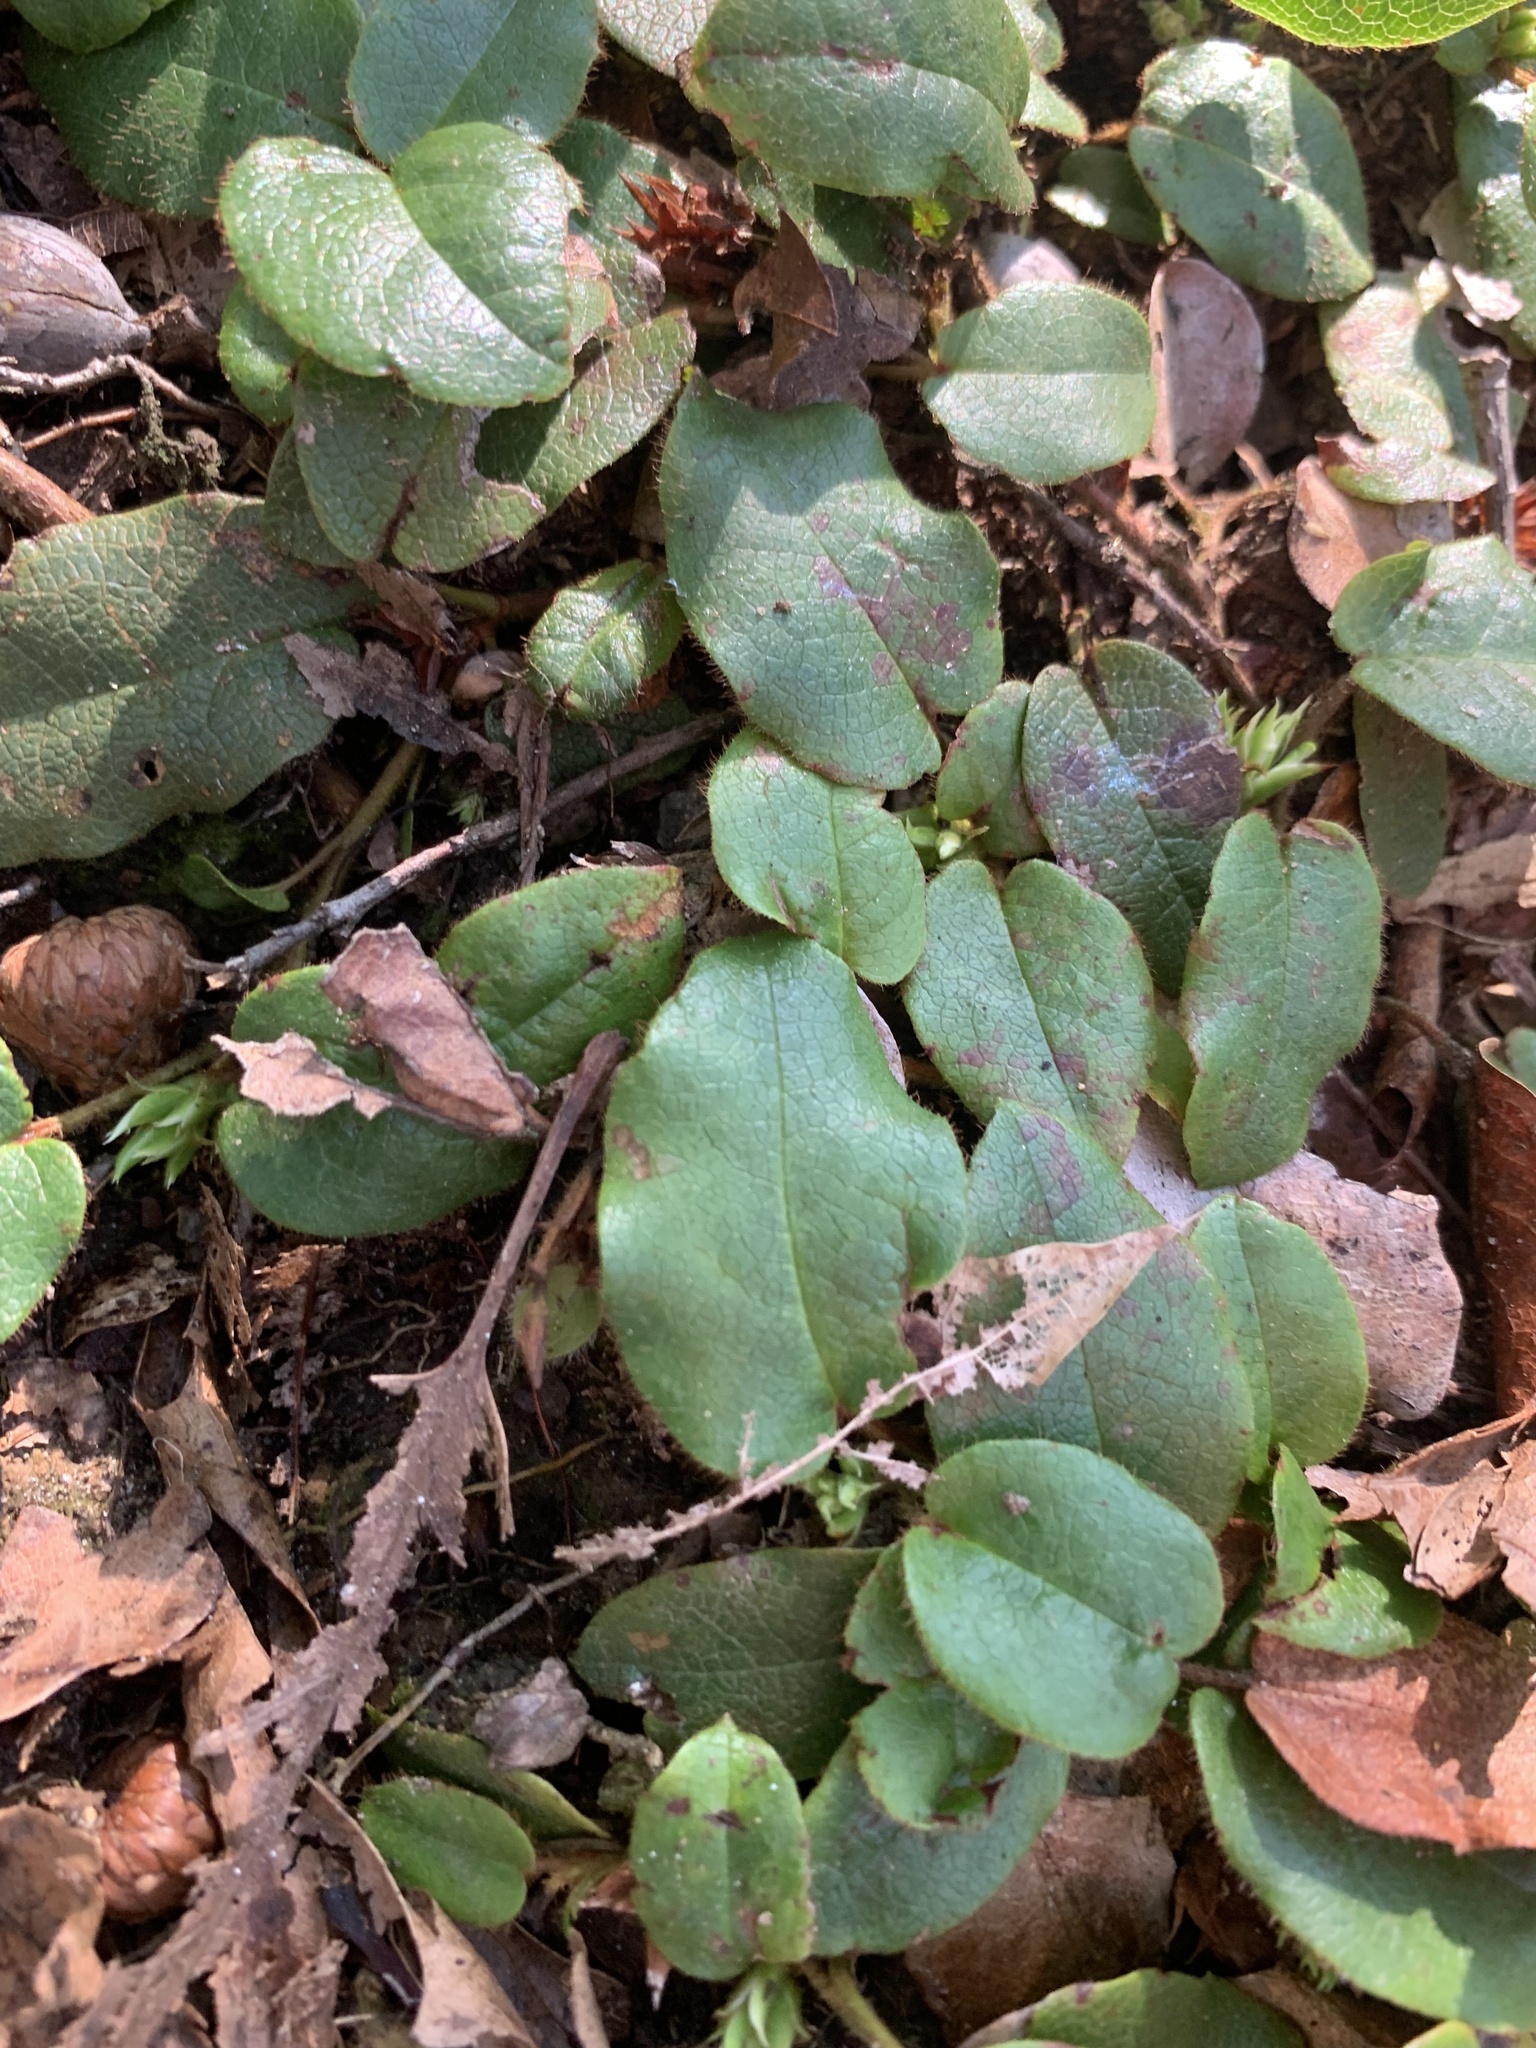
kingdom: Plantae
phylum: Tracheophyta
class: Magnoliopsida
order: Ericales
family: Ericaceae
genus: Epigaea
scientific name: Epigaea repens
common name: Gravelroot
